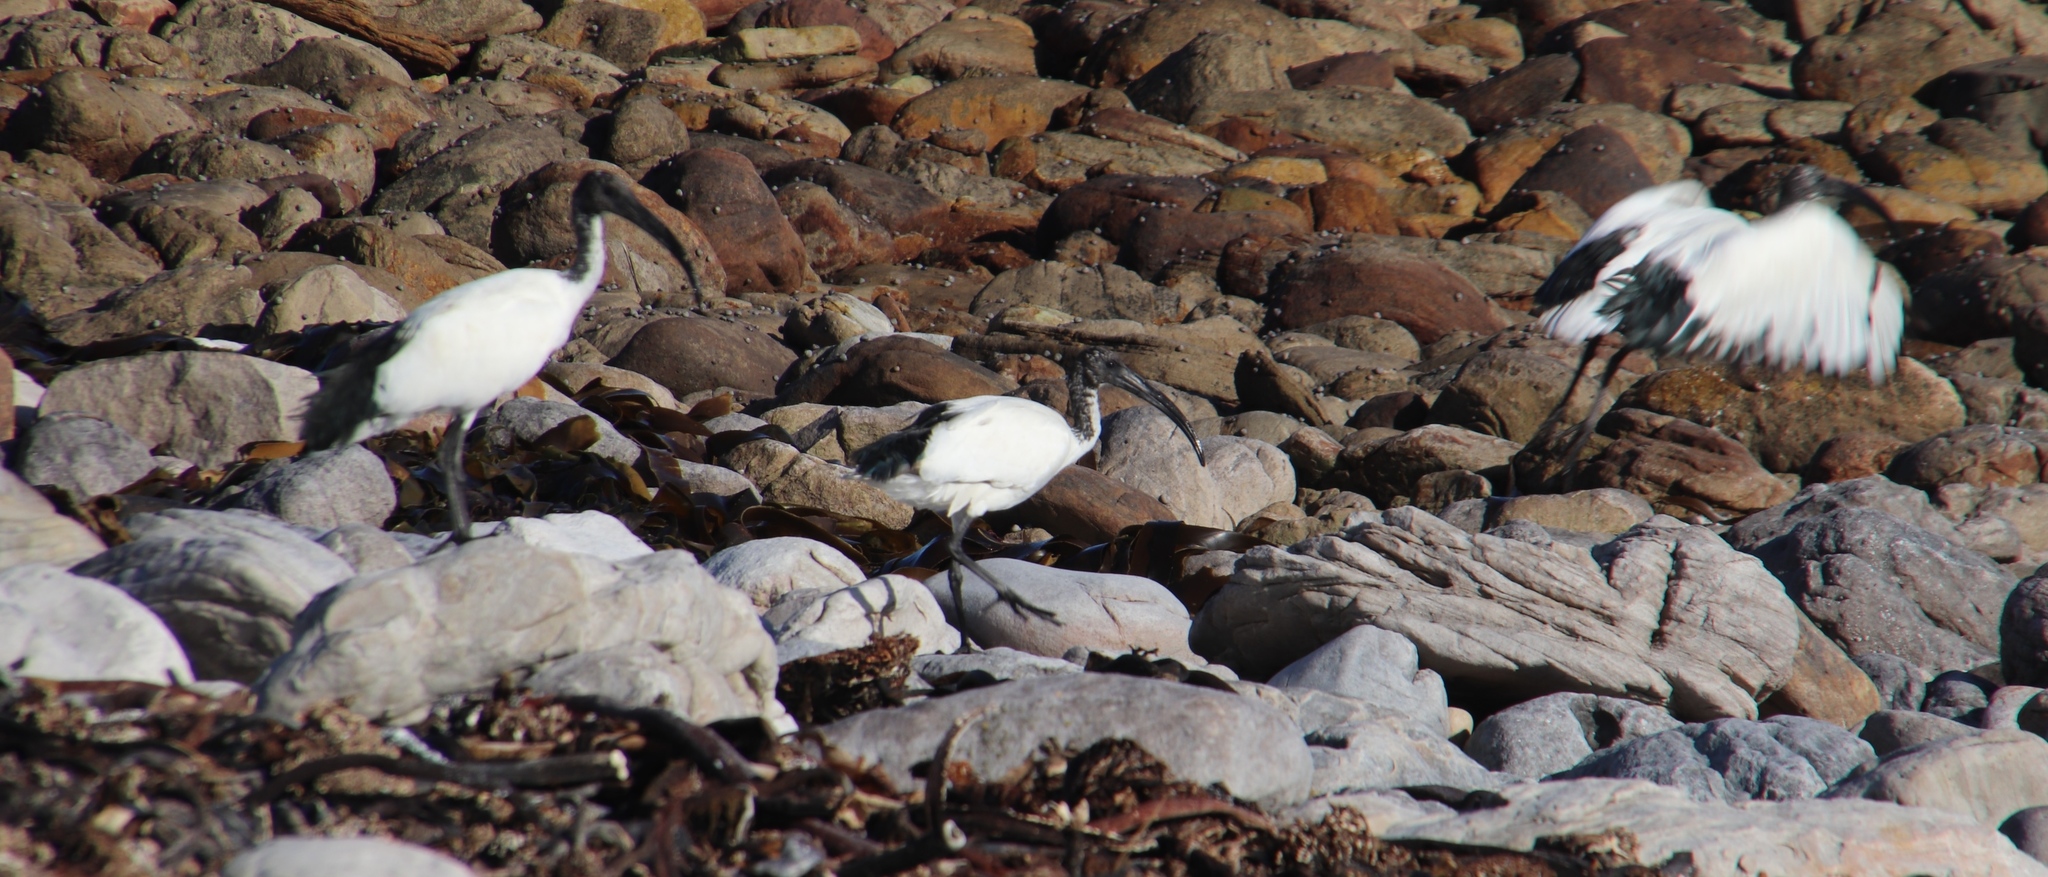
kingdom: Animalia
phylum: Chordata
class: Aves
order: Pelecaniformes
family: Threskiornithidae
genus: Threskiornis
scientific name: Threskiornis aethiopicus
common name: Sacred ibis
